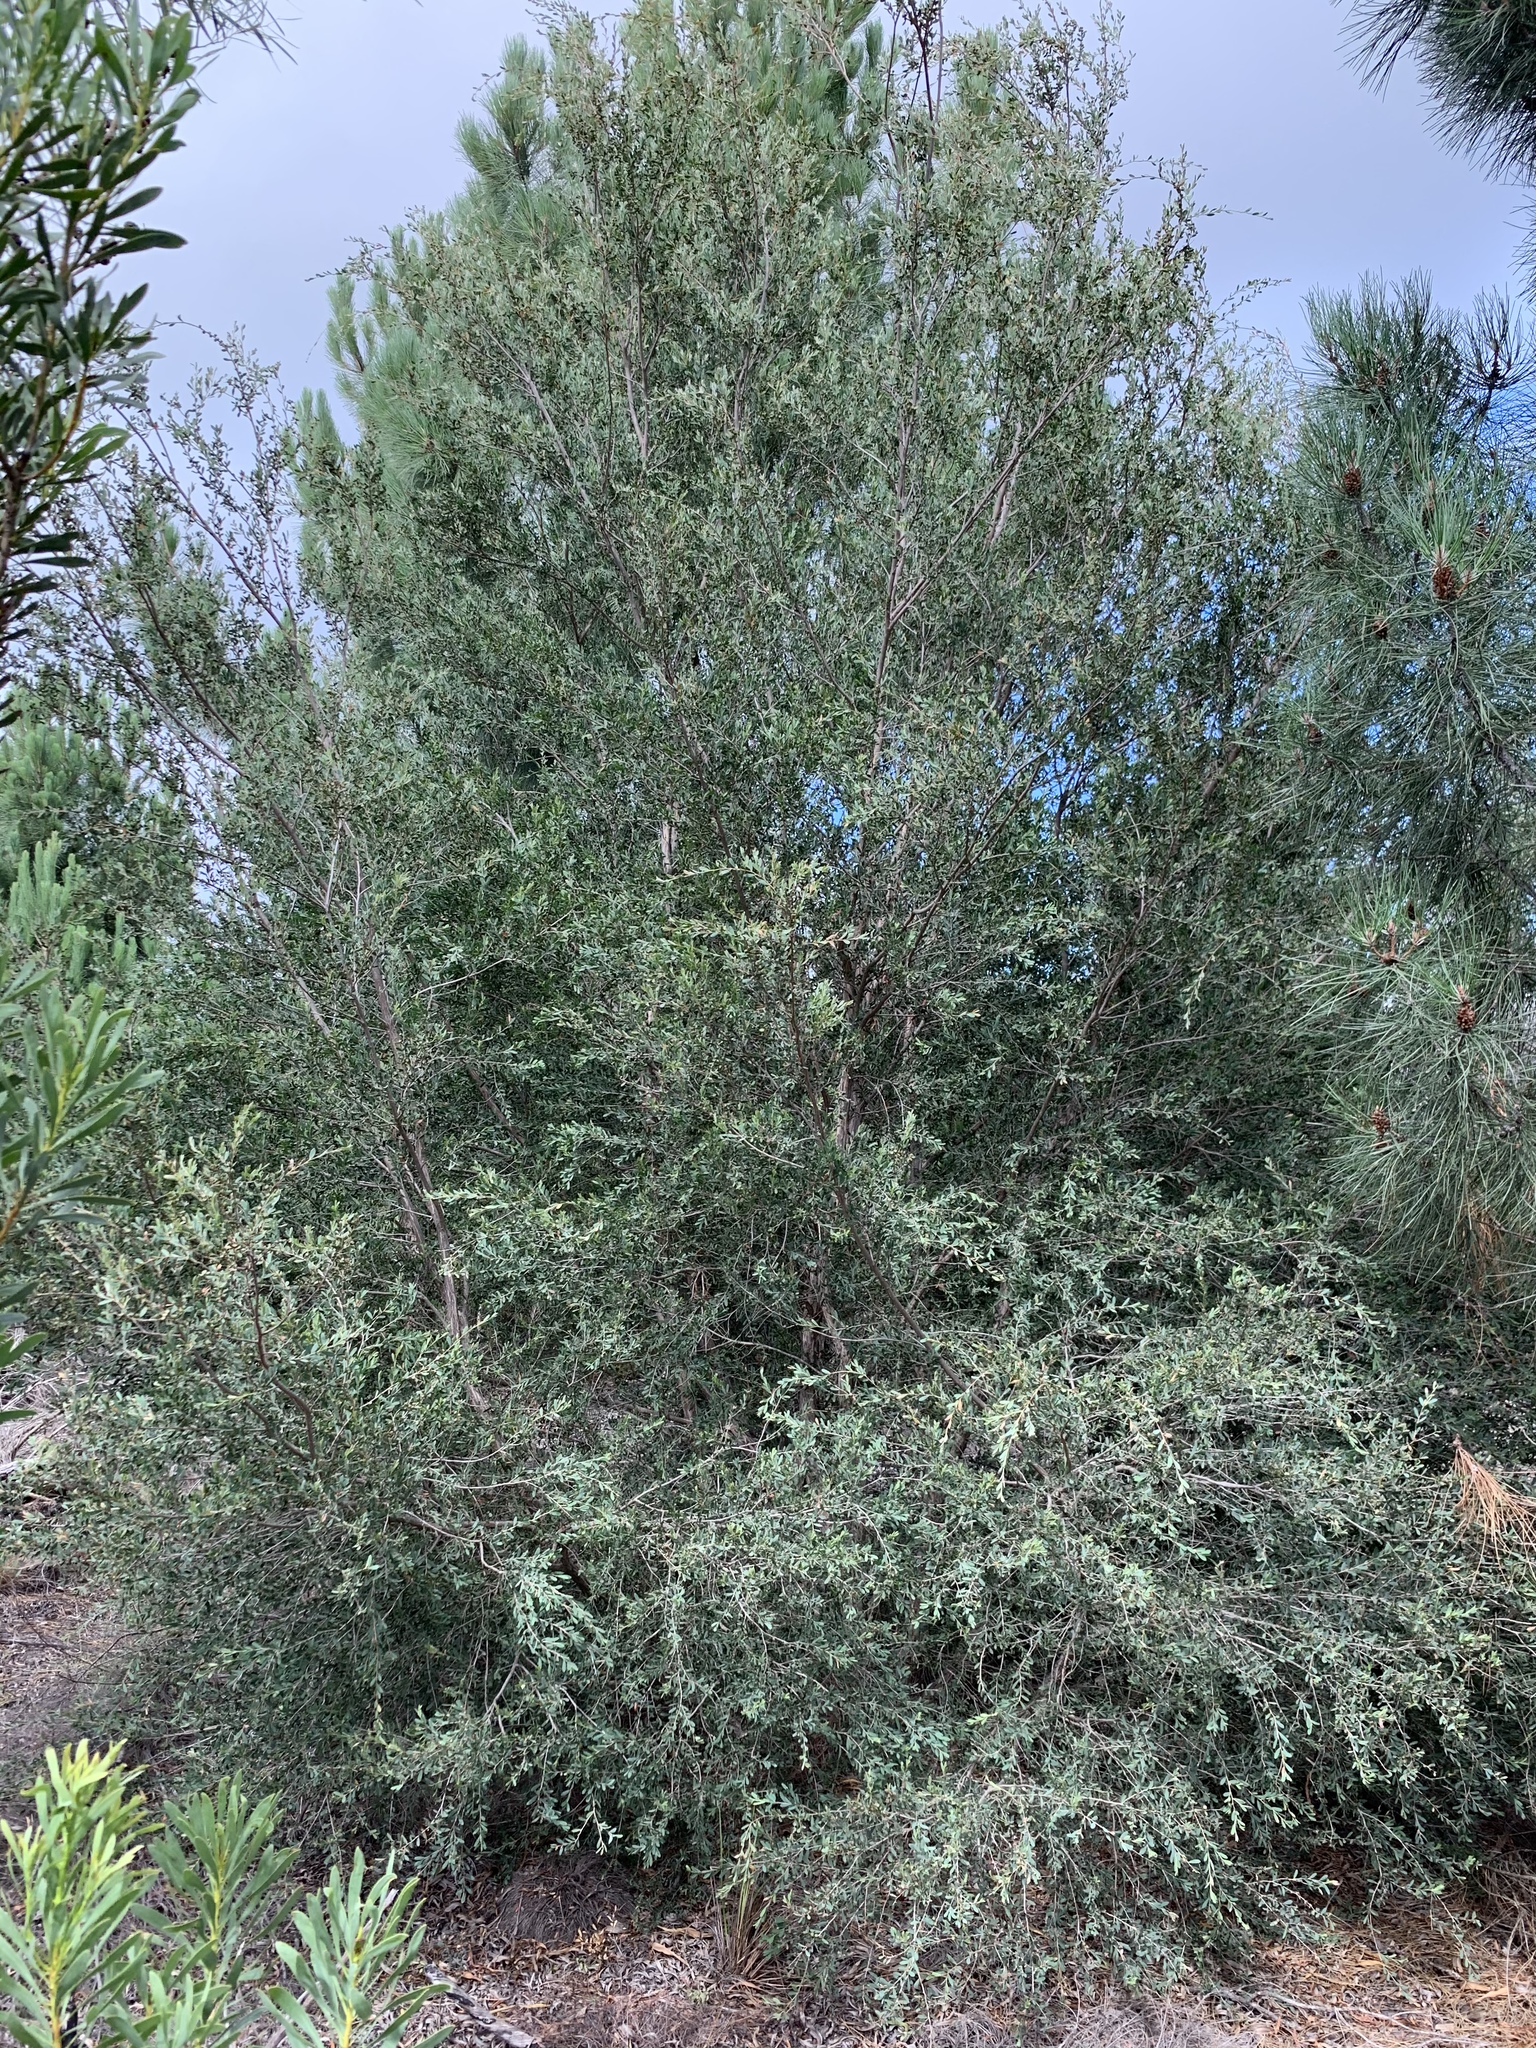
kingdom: Plantae
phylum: Tracheophyta
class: Magnoliopsida
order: Myrtales
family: Myrtaceae
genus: Leptospermum
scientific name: Leptospermum laevigatum
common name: Australian teatree
